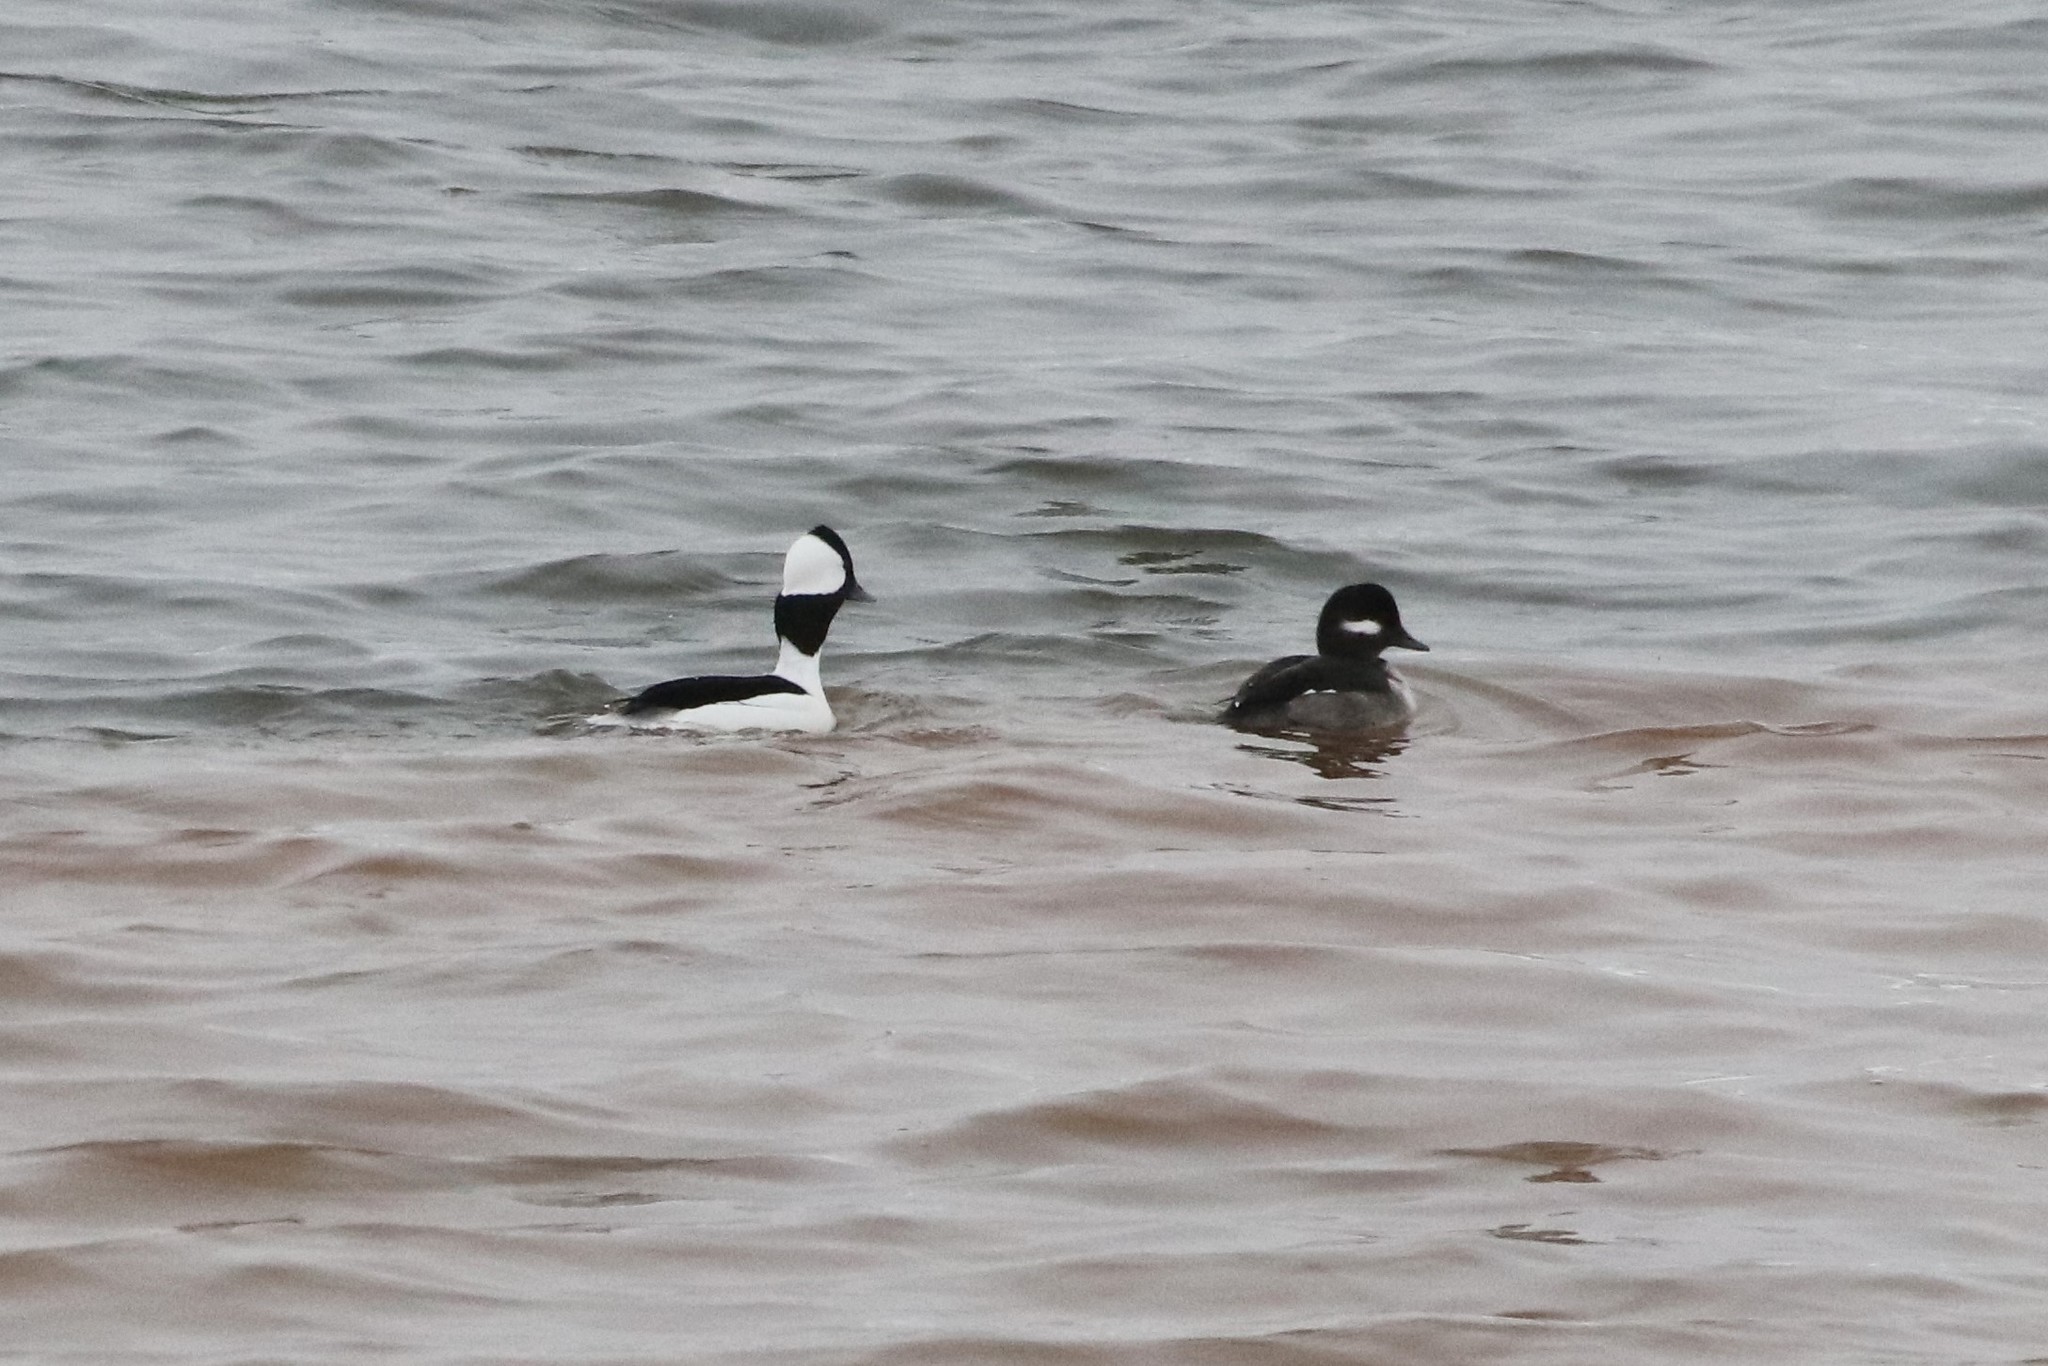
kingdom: Animalia
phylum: Chordata
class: Aves
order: Anseriformes
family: Anatidae
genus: Bucephala
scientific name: Bucephala albeola
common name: Bufflehead
